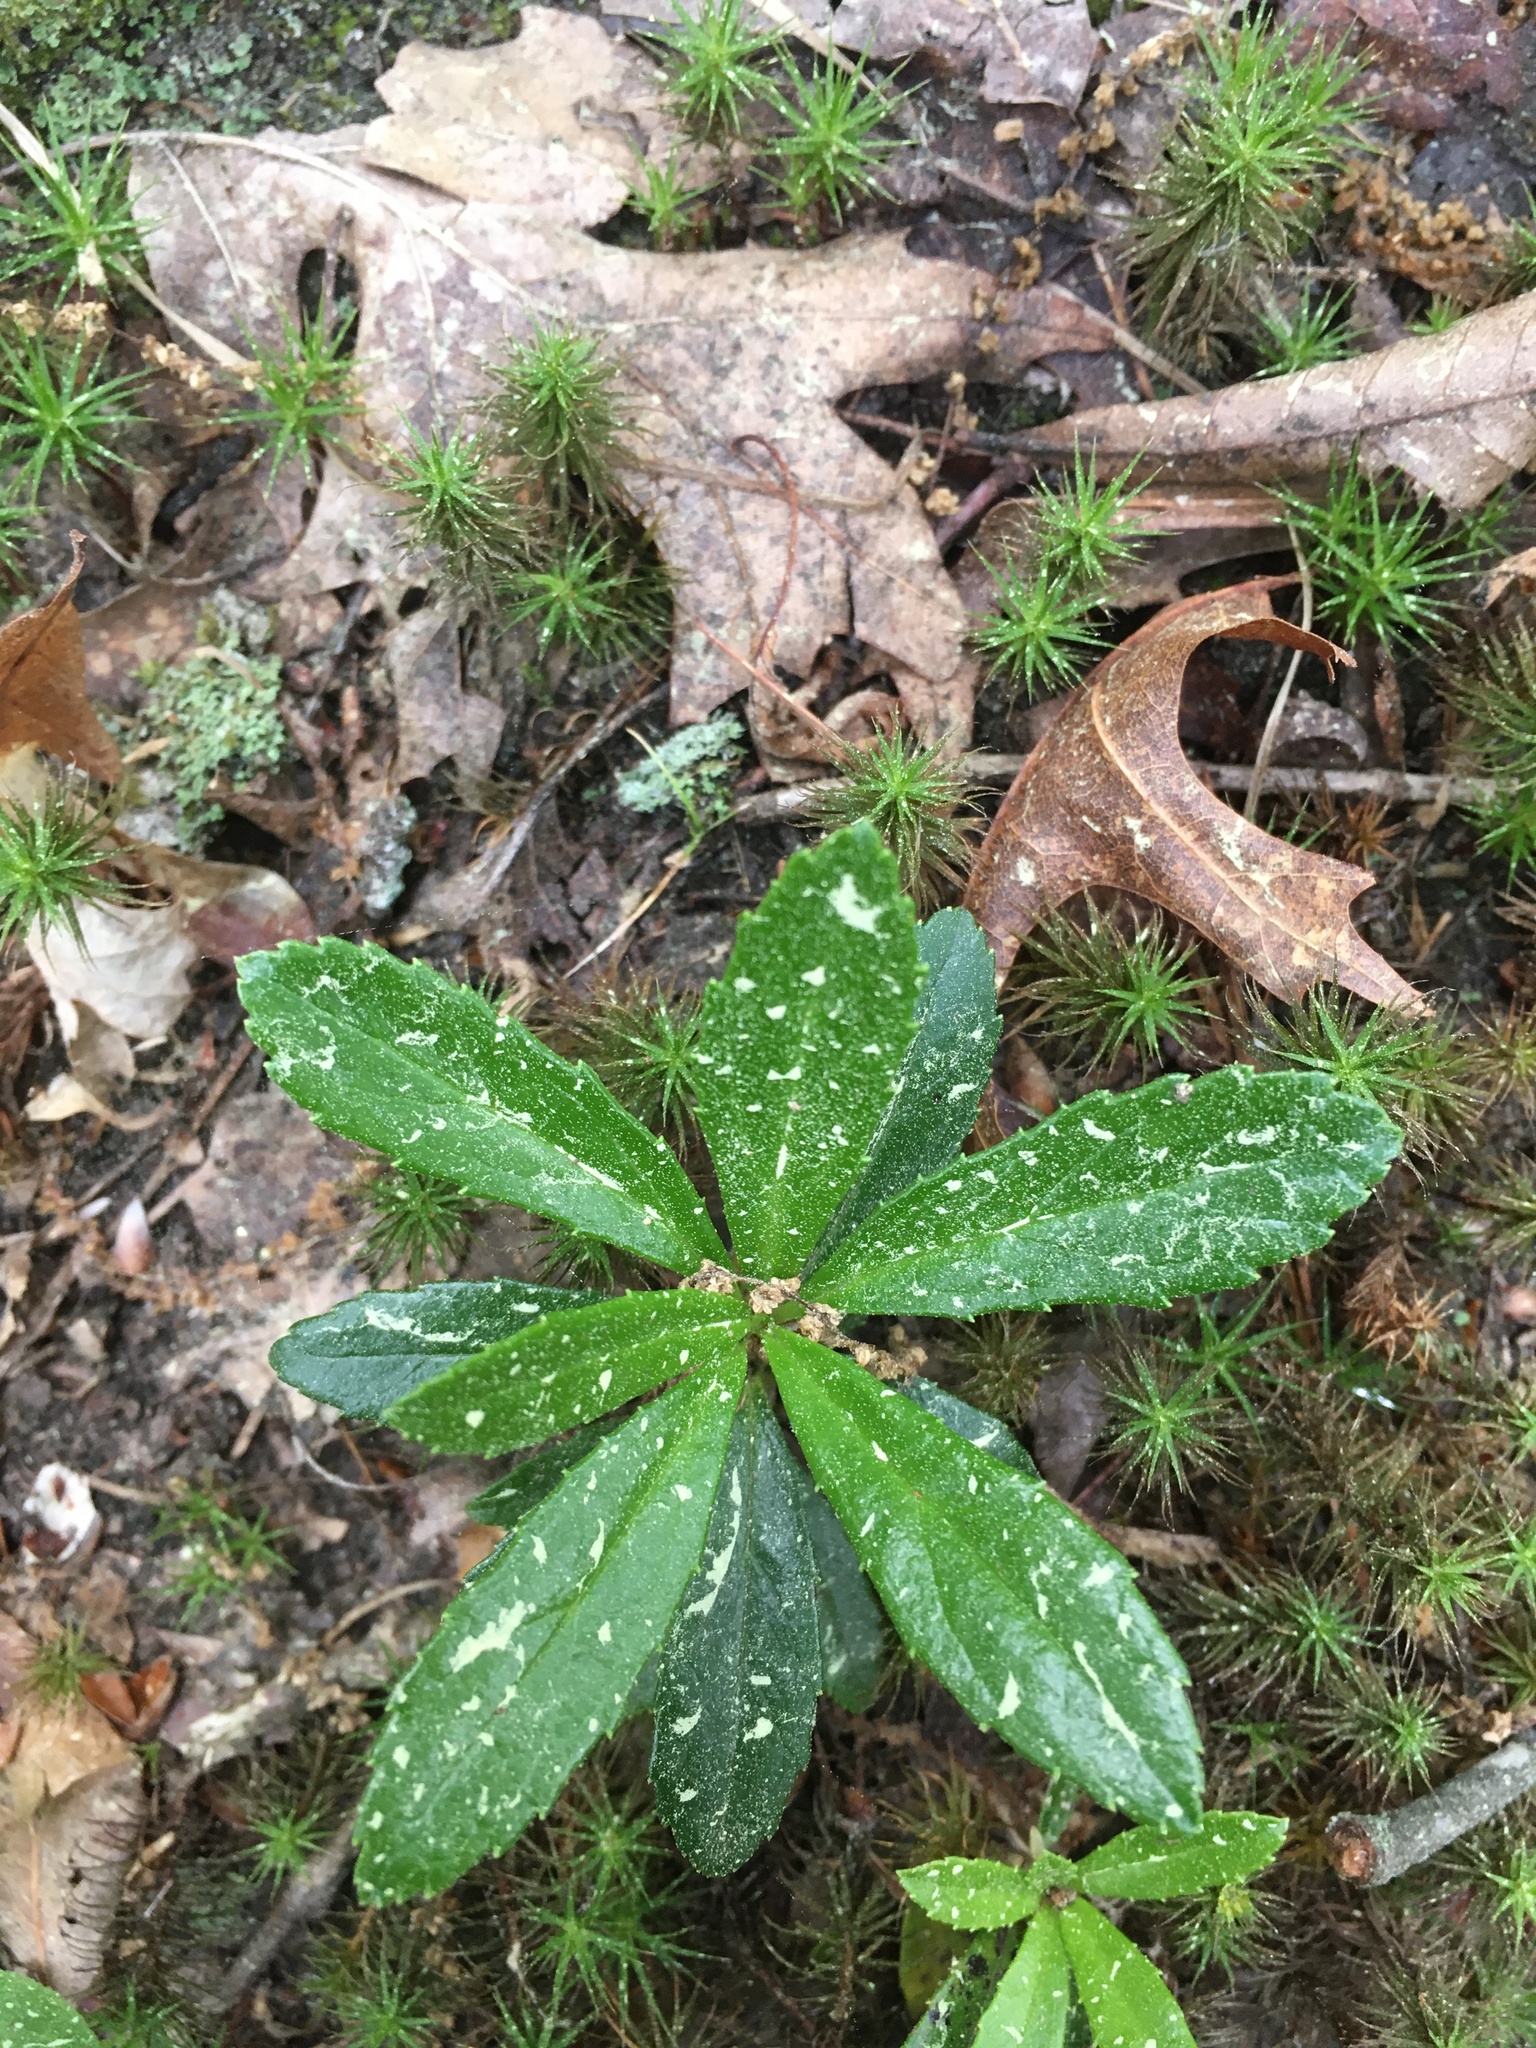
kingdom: Plantae
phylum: Tracheophyta
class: Magnoliopsida
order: Ericales
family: Ericaceae
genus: Chimaphila
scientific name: Chimaphila umbellata
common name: Pipsissewa
